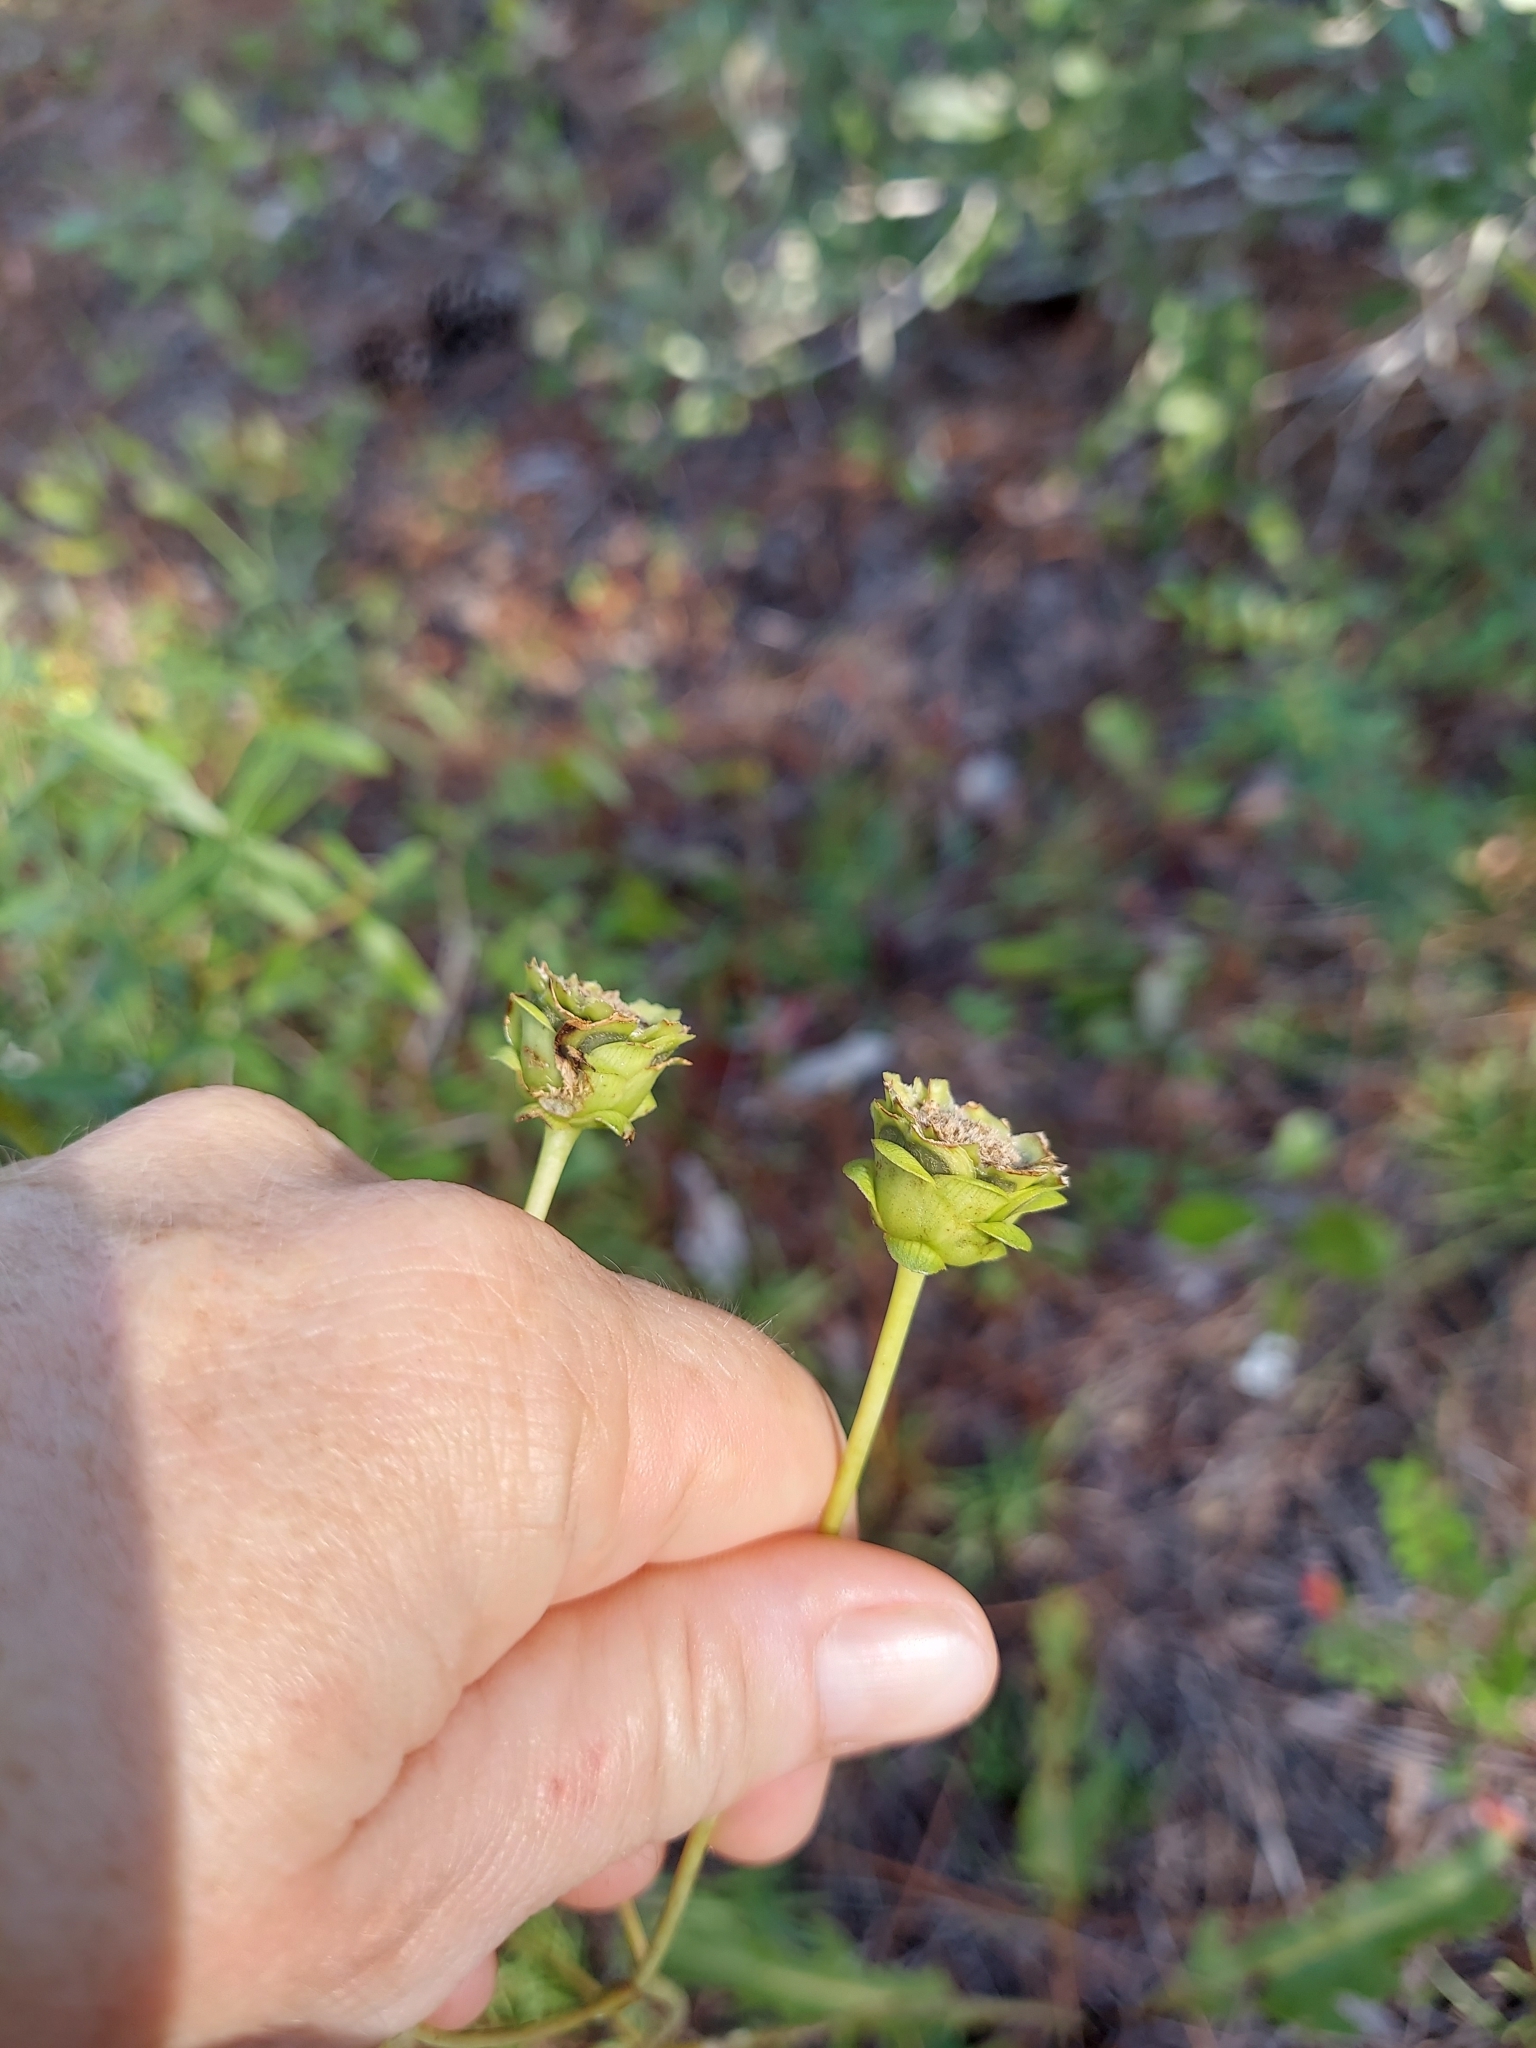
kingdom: Plantae
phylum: Tracheophyta
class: Magnoliopsida
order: Asterales
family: Asteraceae
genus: Silphium
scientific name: Silphium compositum
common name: Lesser basal-leaf rosinweed
